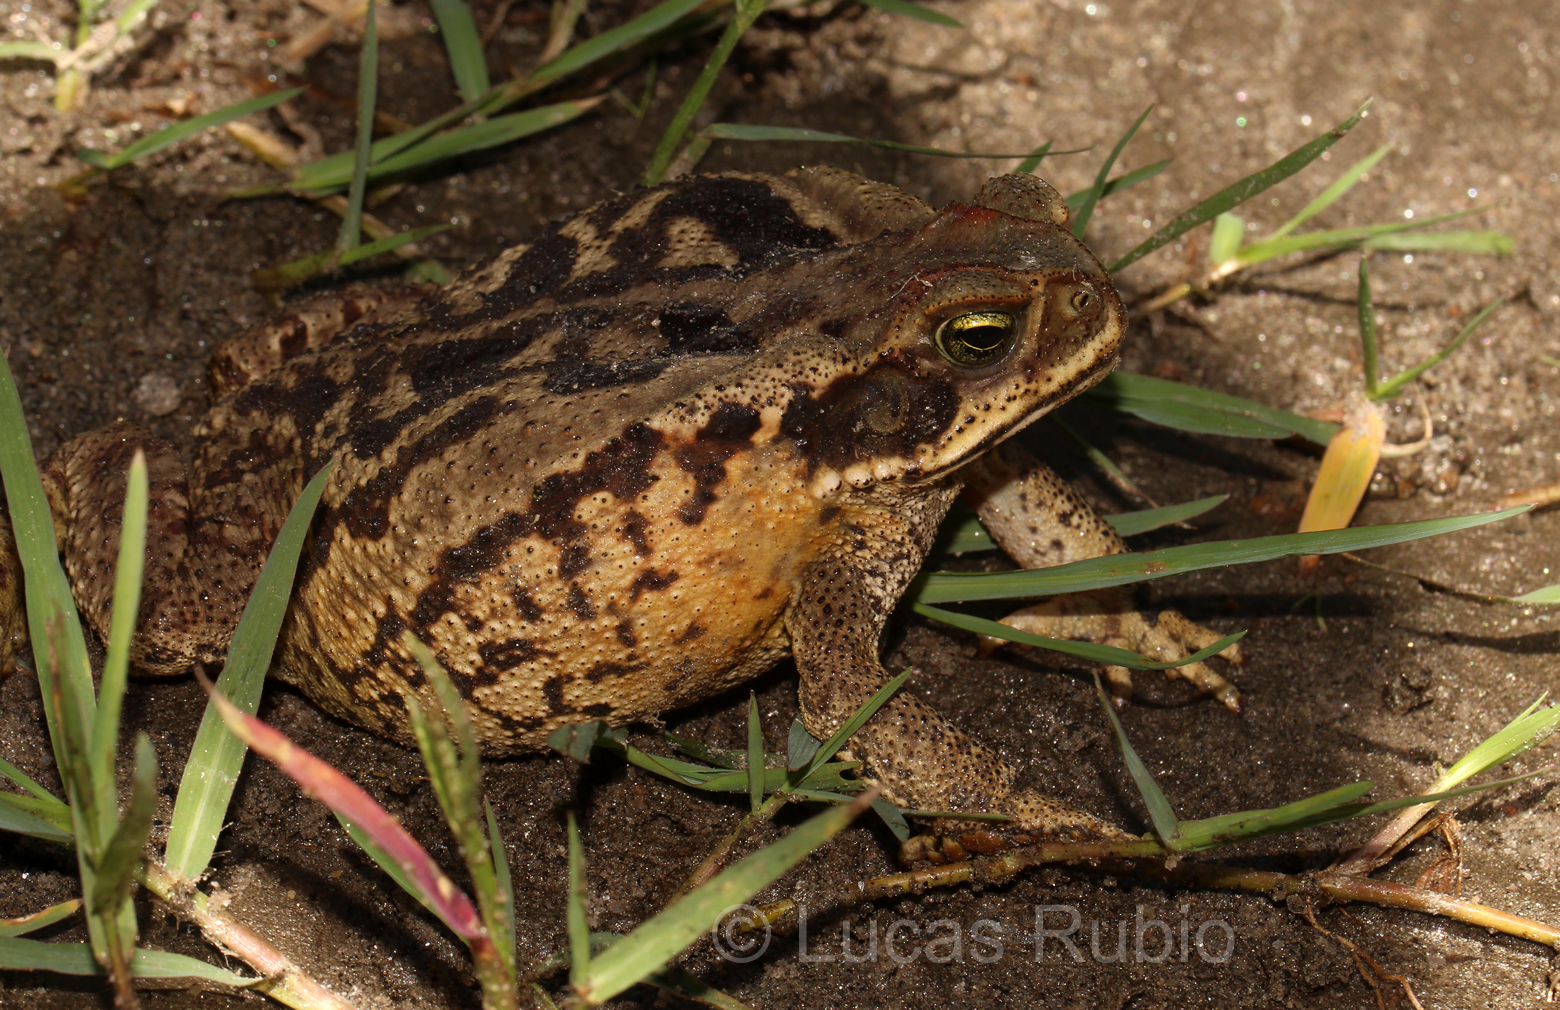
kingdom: Animalia
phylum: Chordata
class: Amphibia
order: Anura
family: Bufonidae
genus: Rhinella
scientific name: Rhinella diptycha
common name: Cope's toad
